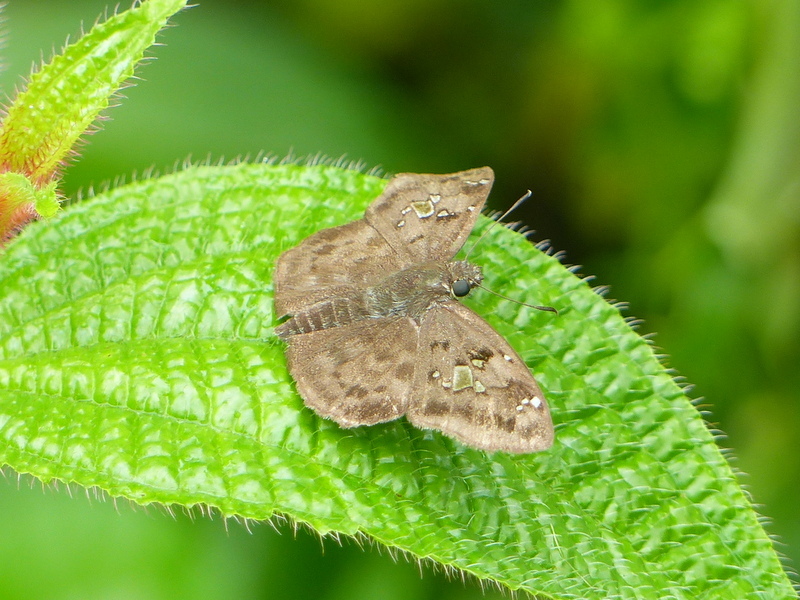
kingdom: Animalia
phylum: Arthropoda
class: Insecta
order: Lepidoptera
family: Hesperiidae
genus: Sarangesa
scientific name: Sarangesa maculata
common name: Big-spot elfin
